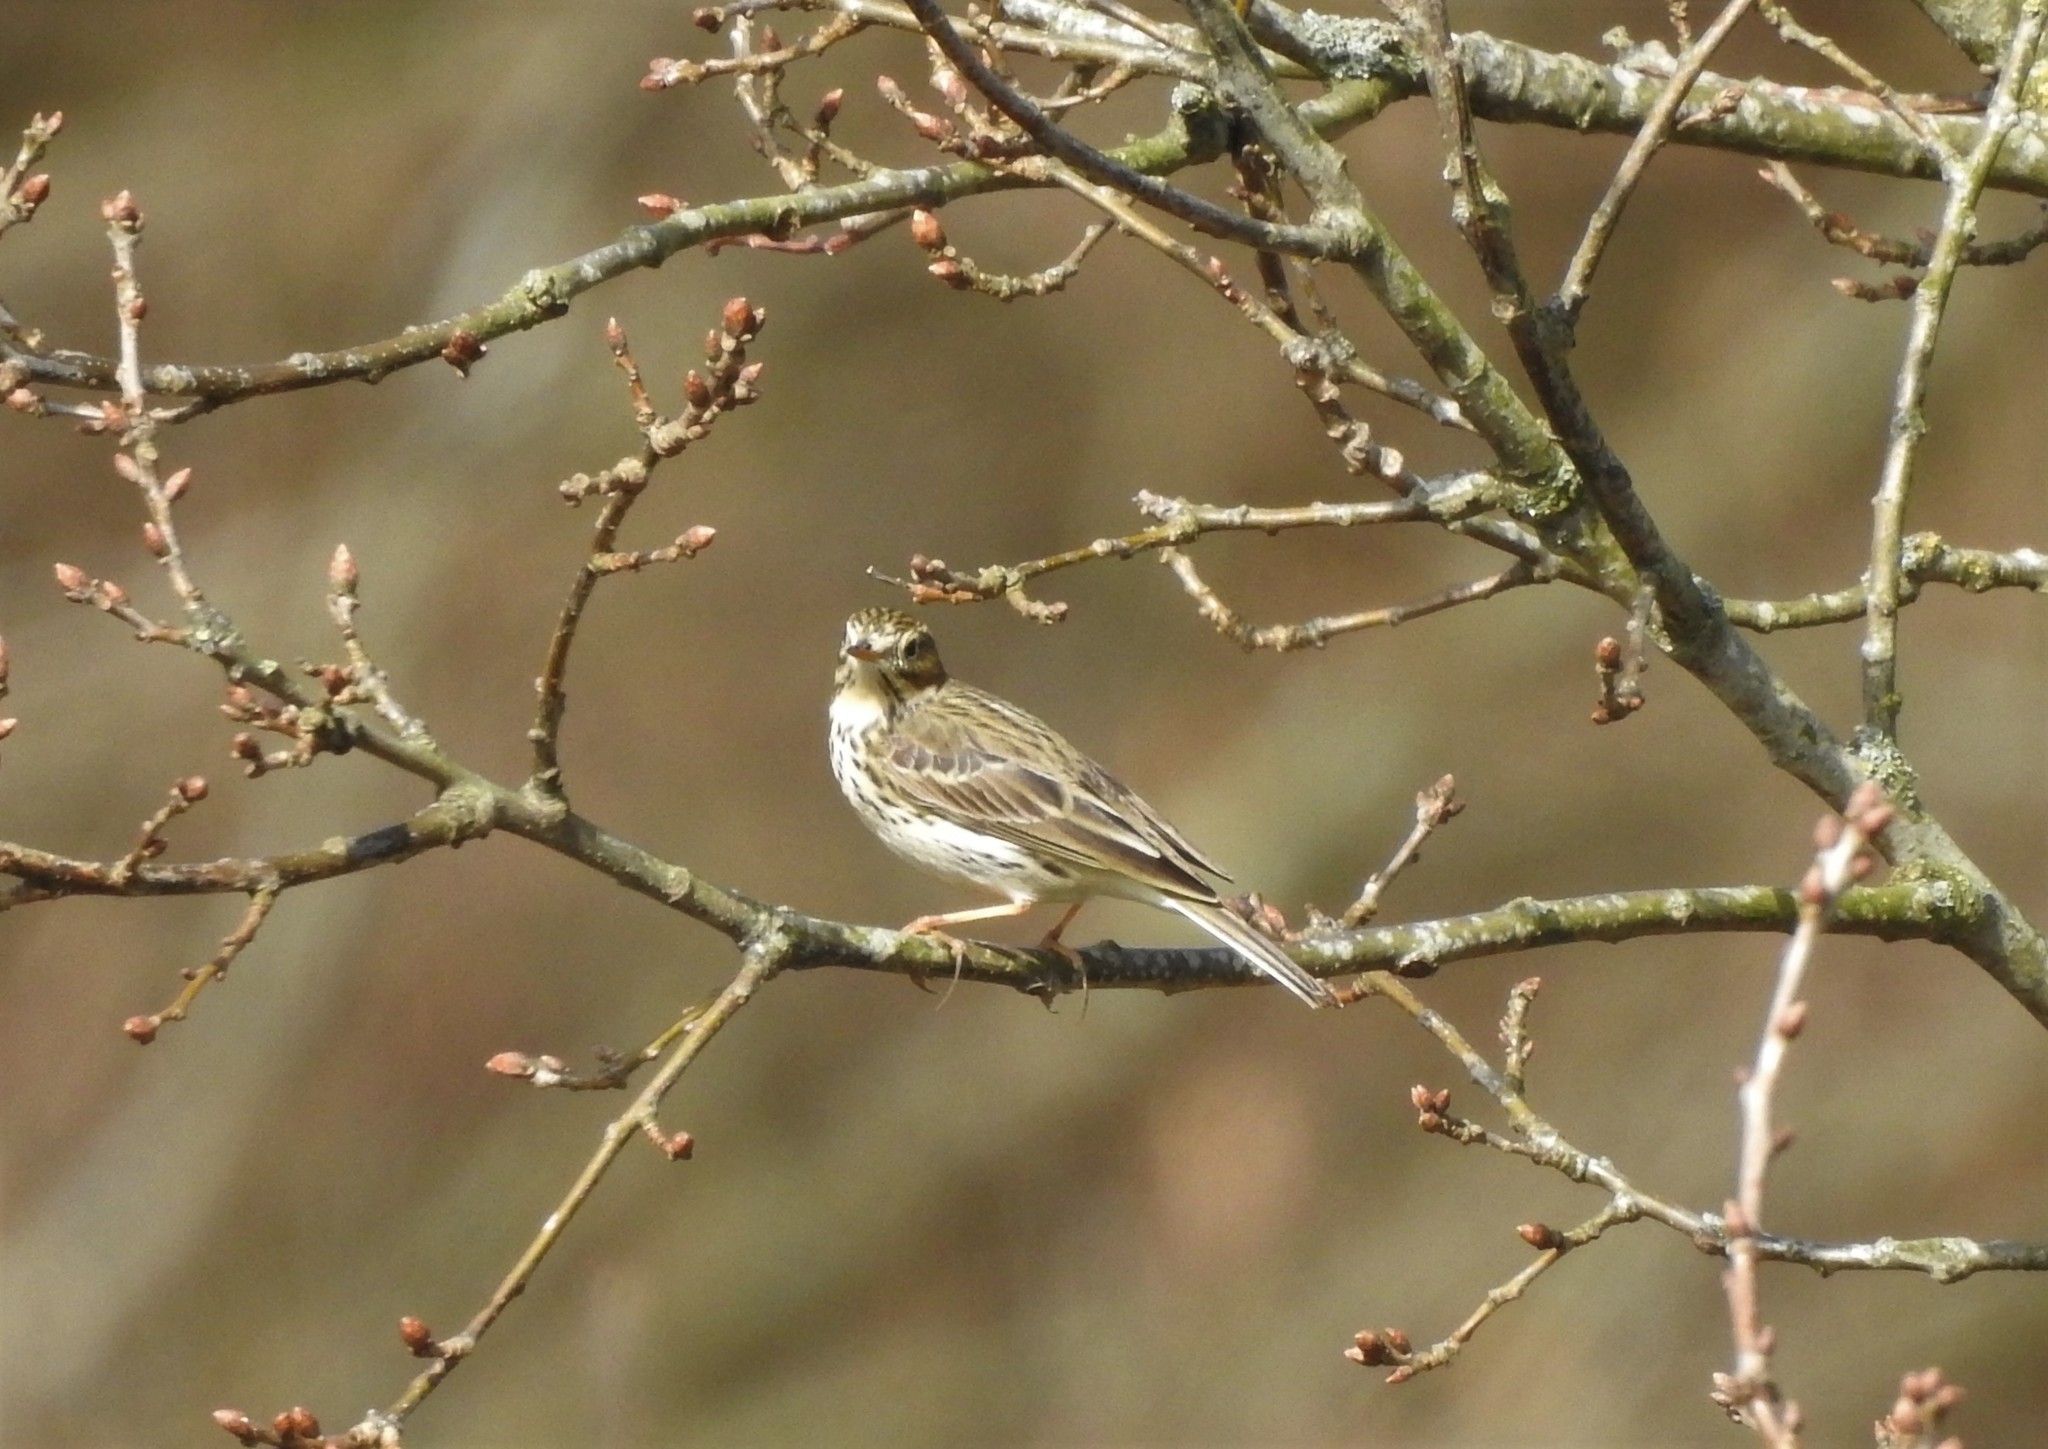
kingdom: Animalia
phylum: Chordata
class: Aves
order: Passeriformes
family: Motacillidae
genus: Anthus
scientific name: Anthus pratensis
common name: Meadow pipit
